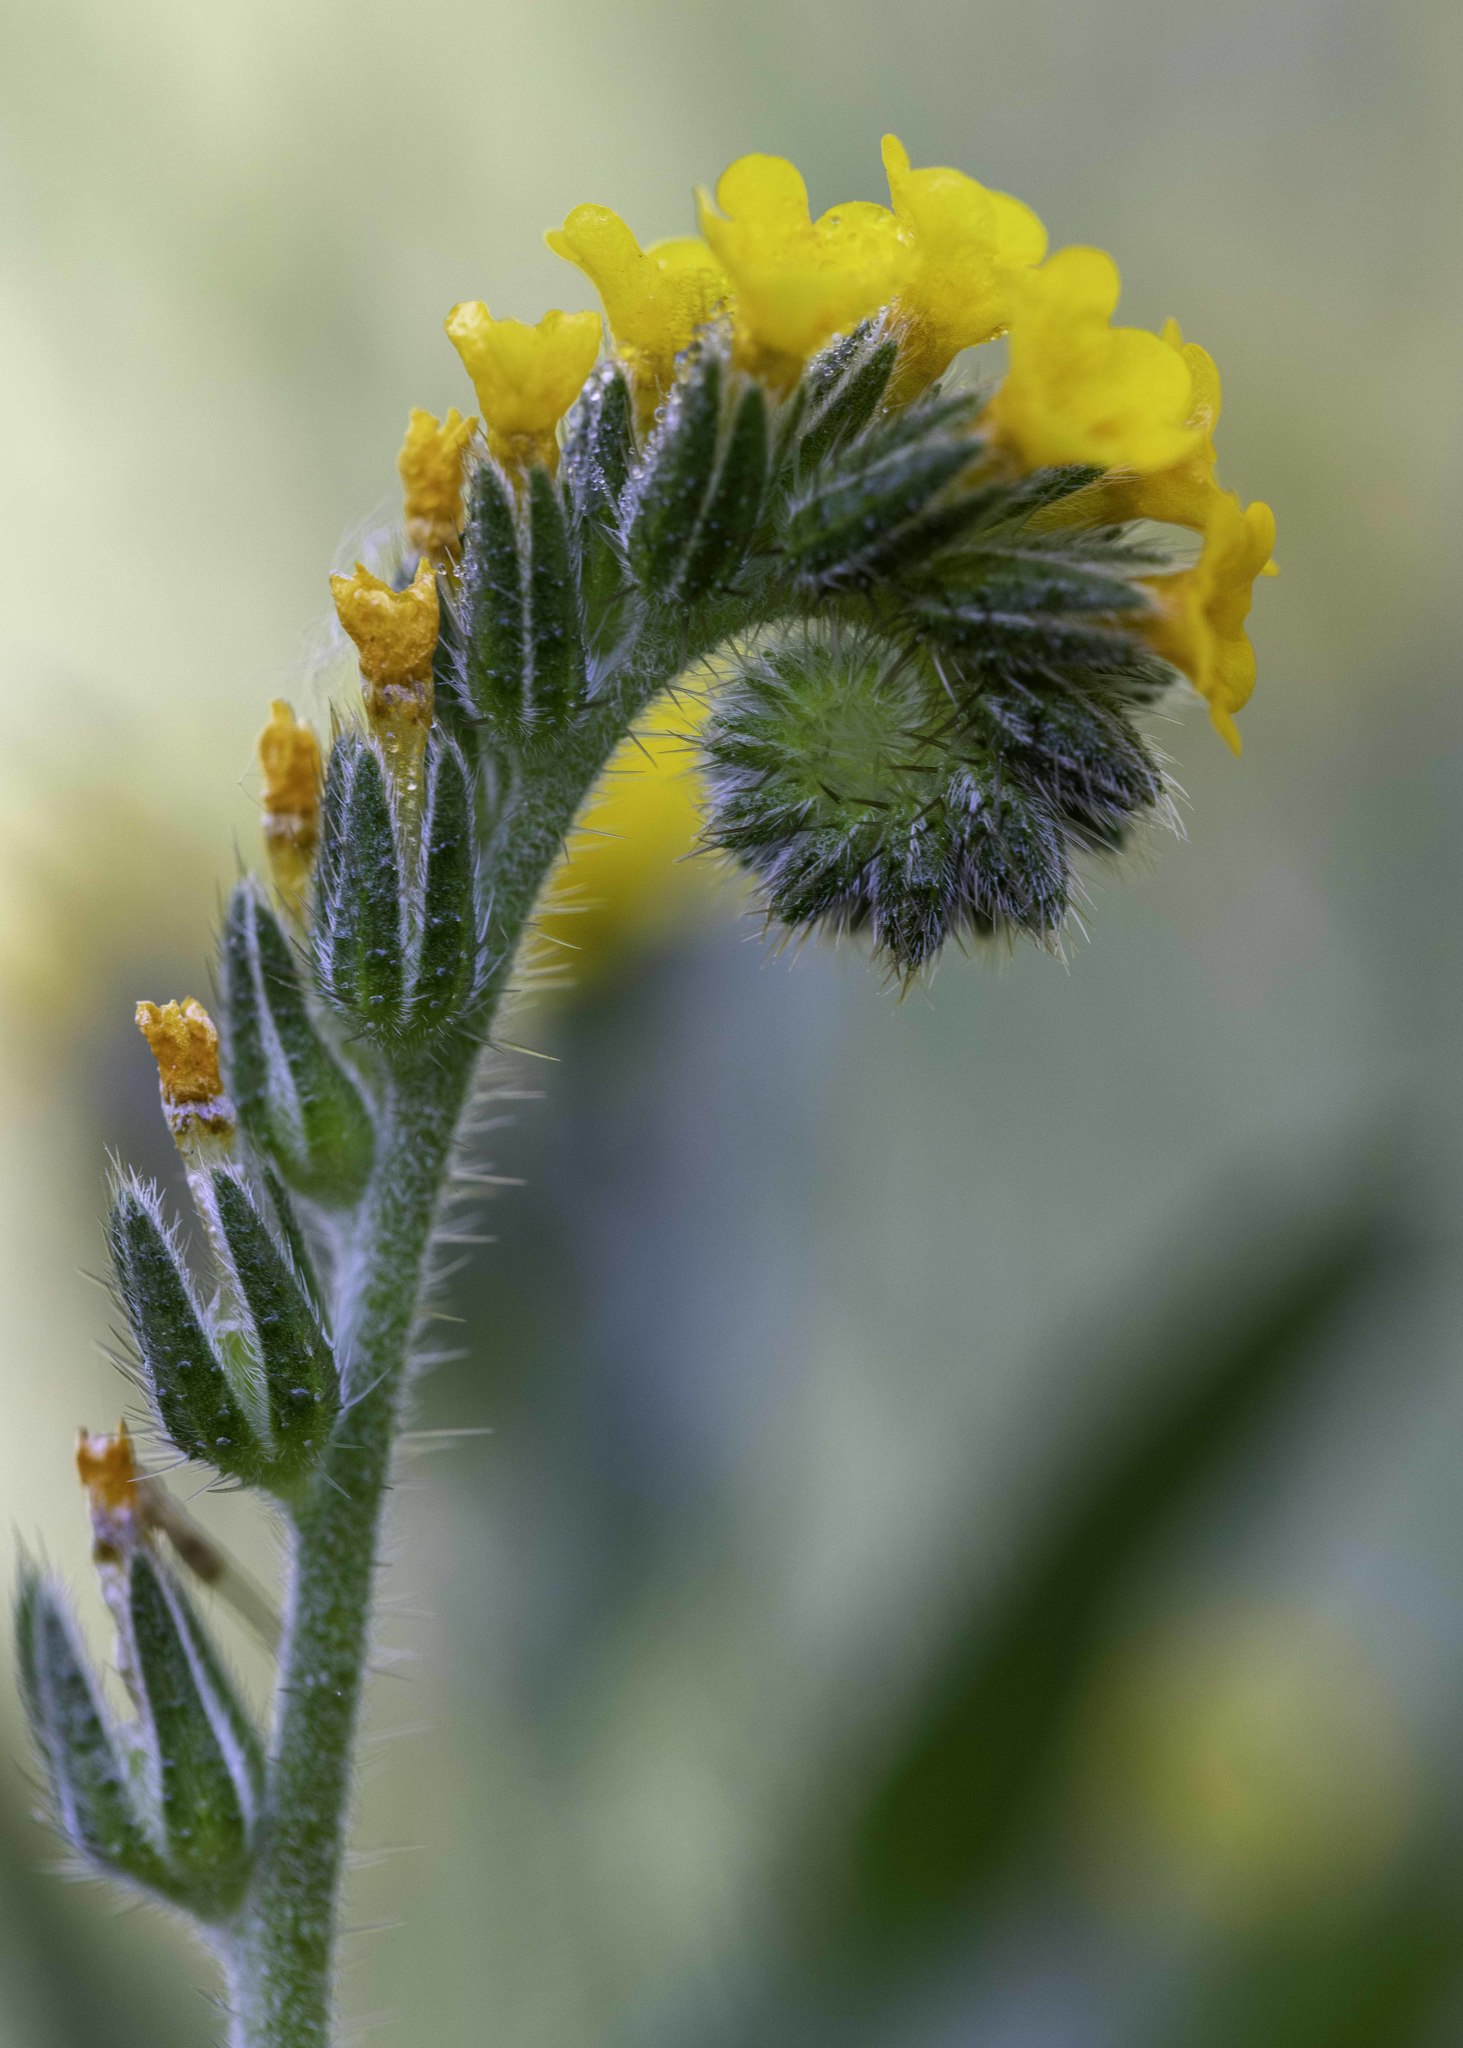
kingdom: Plantae
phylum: Tracheophyta
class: Magnoliopsida
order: Boraginales
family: Boraginaceae
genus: Amsinckia
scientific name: Amsinckia menziesii
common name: Menzies' fiddleneck
